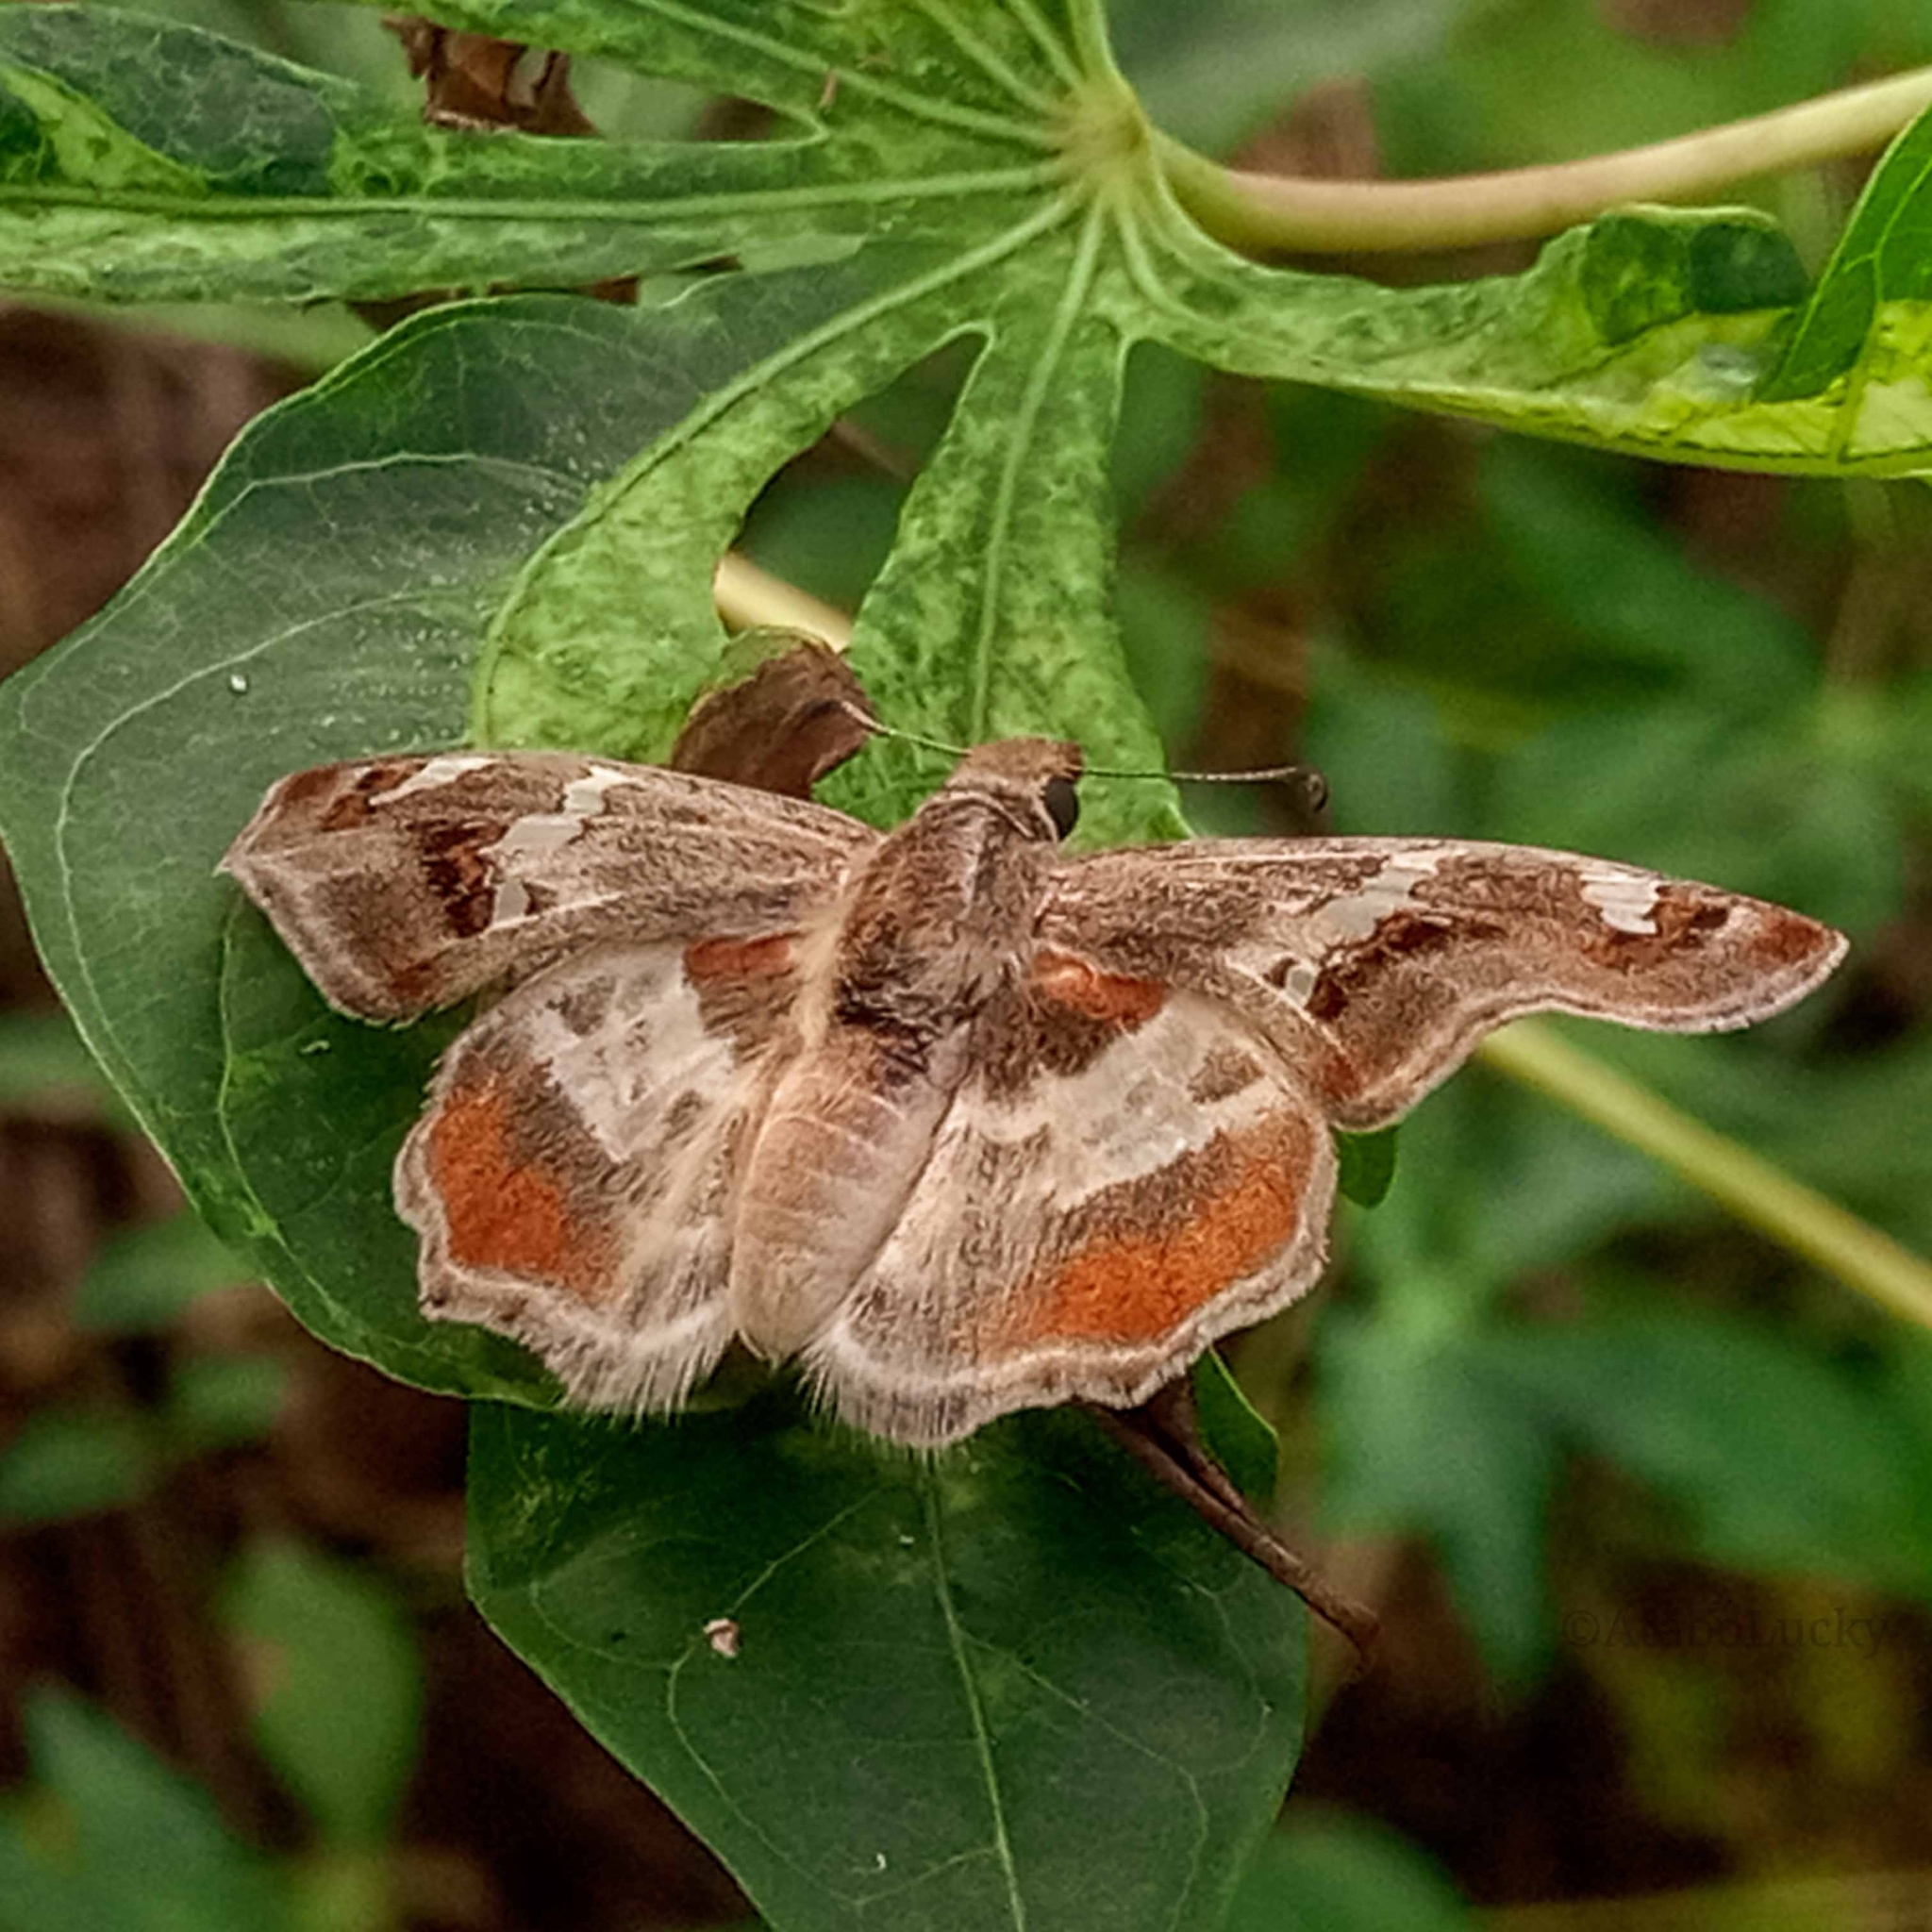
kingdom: Animalia
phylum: Arthropoda
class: Insecta
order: Lepidoptera
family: Hesperiidae
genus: Abantis
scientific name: Abantis
